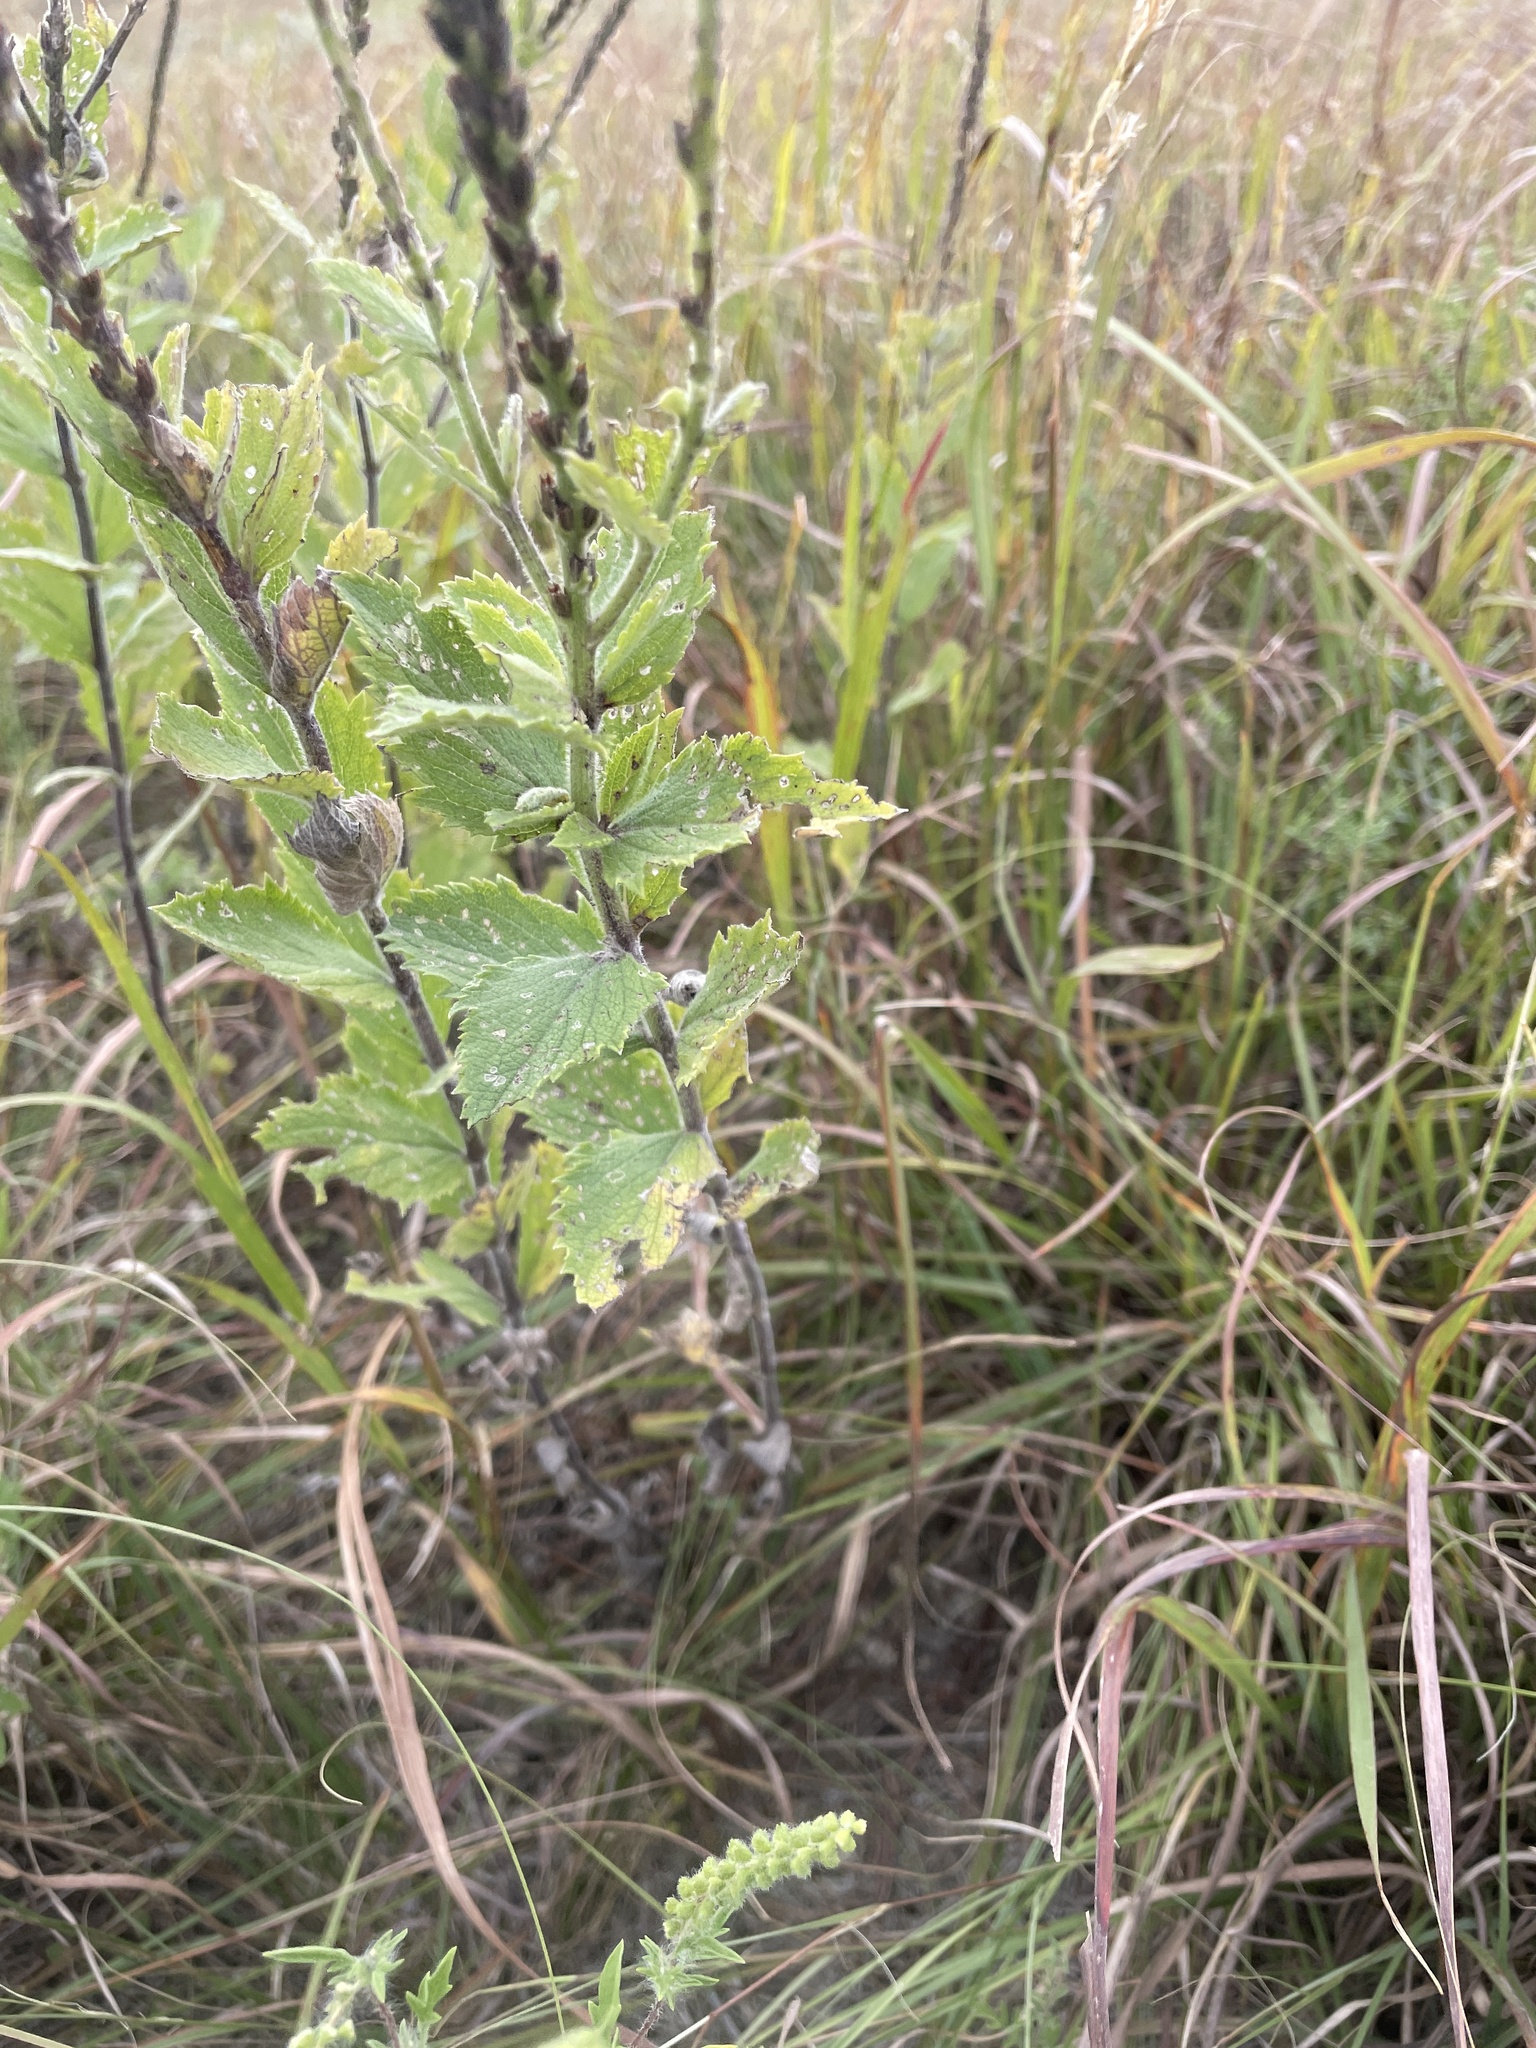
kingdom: Plantae
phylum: Tracheophyta
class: Magnoliopsida
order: Lamiales
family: Verbenaceae
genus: Verbena
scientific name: Verbena stricta
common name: Hoary vervain
